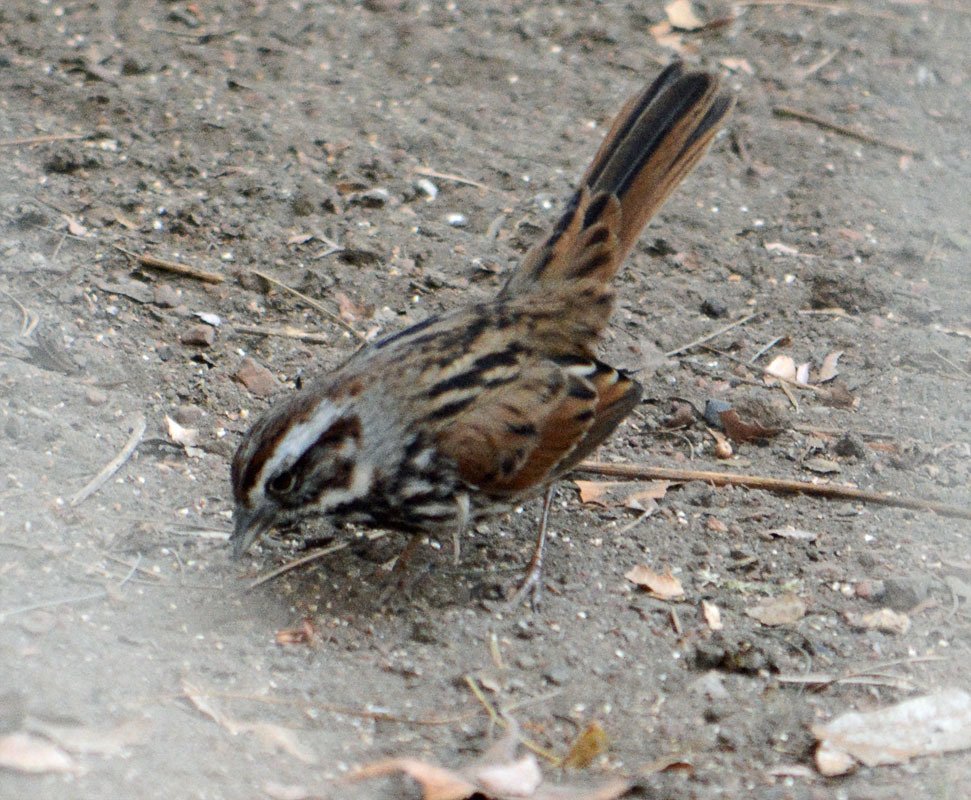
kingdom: Animalia
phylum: Chordata
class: Aves
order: Passeriformes
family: Passerellidae
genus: Melospiza
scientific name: Melospiza melodia
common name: Song sparrow
